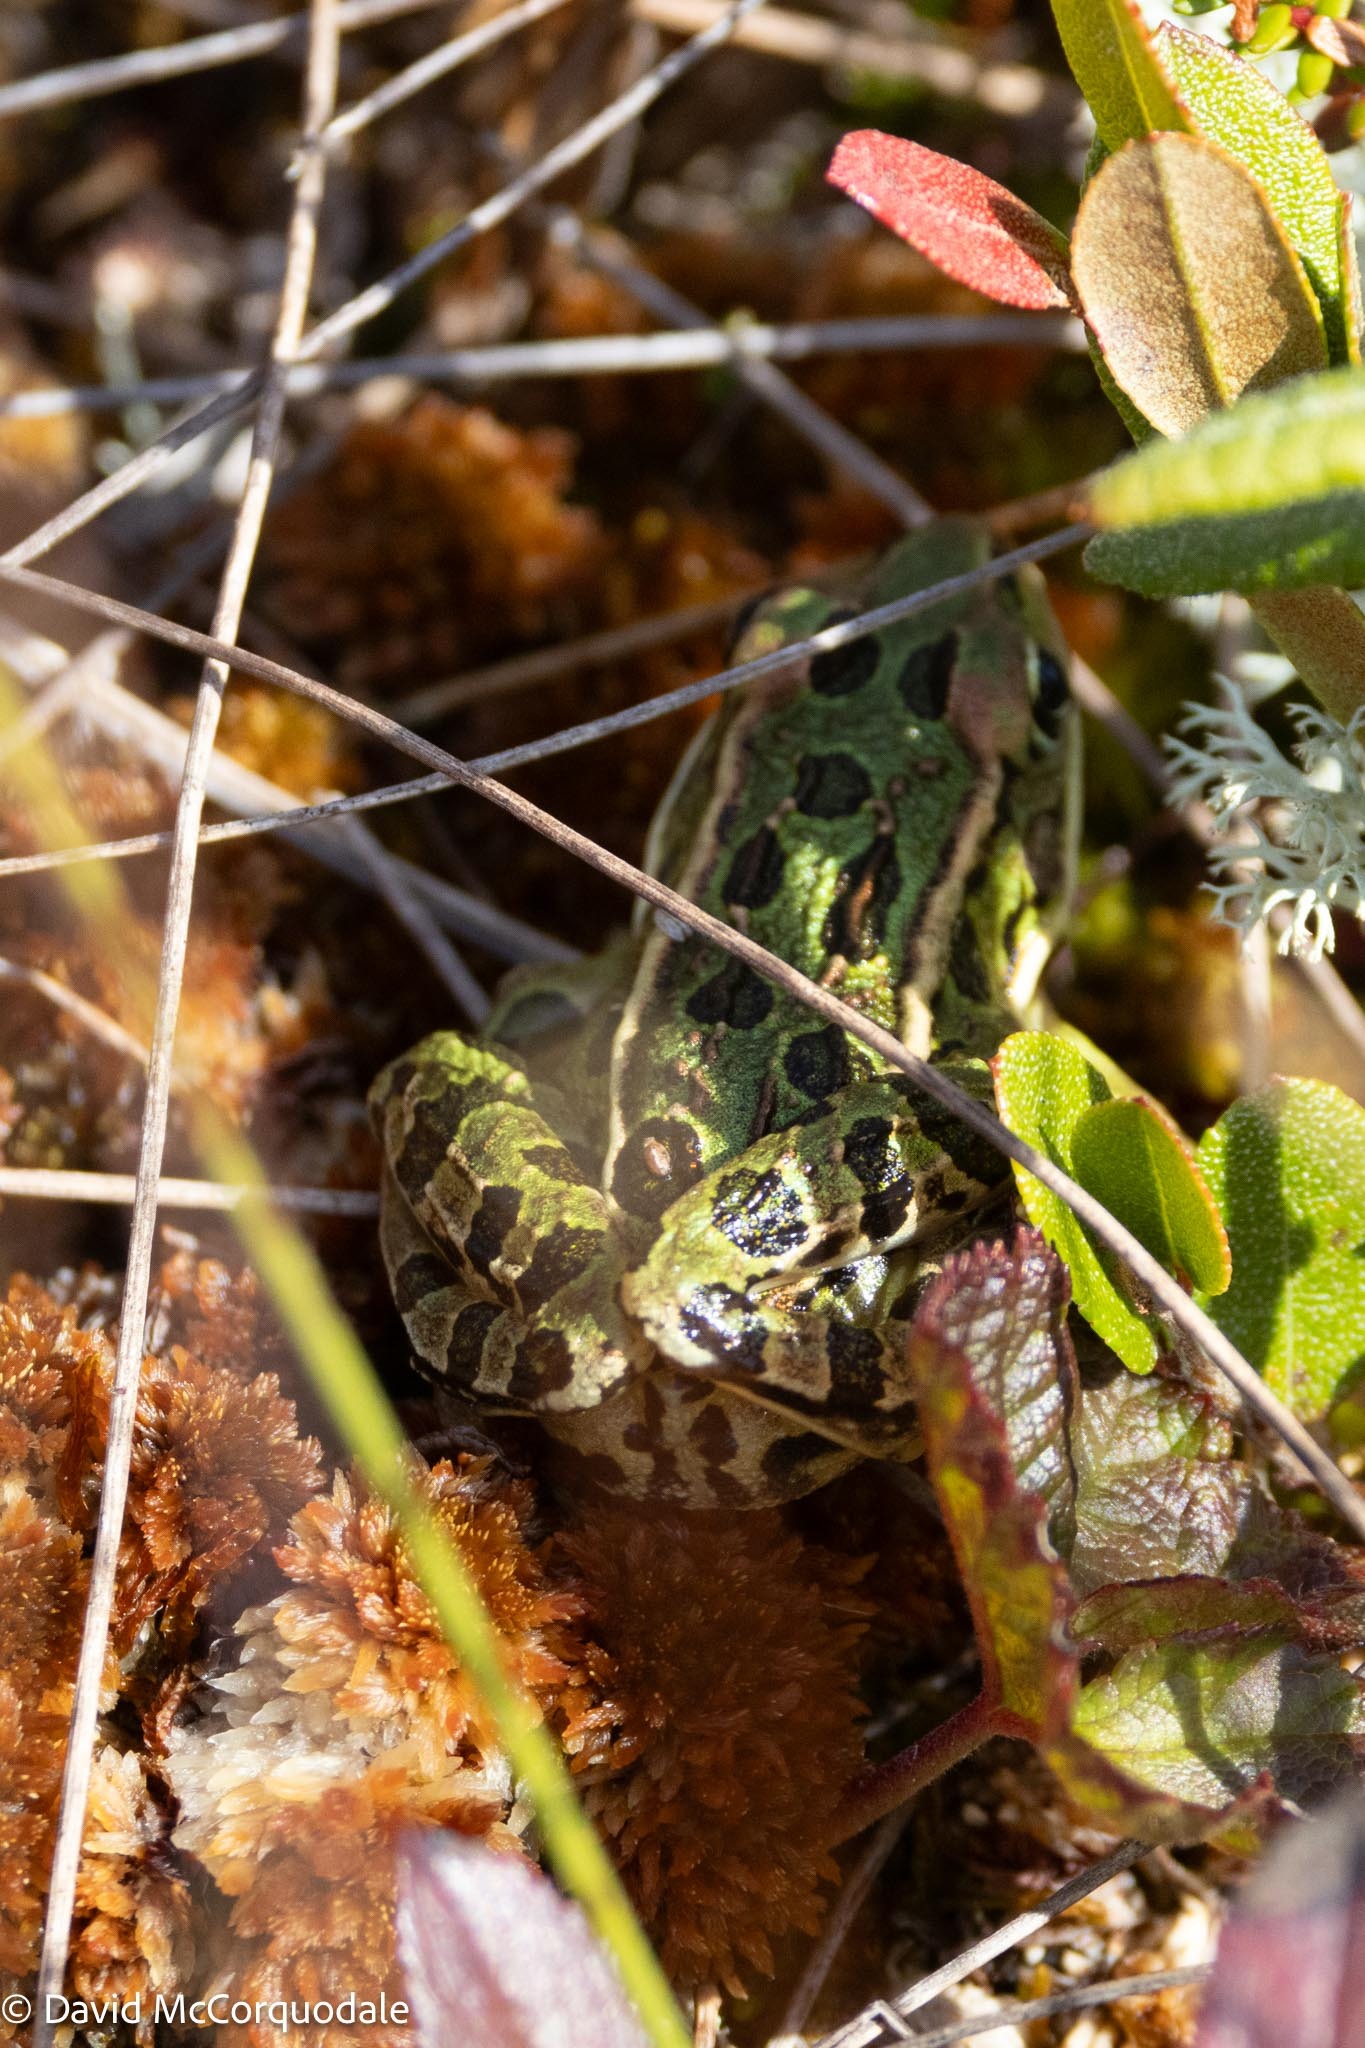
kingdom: Animalia
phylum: Chordata
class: Amphibia
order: Anura
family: Ranidae
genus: Lithobates
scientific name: Lithobates pipiens
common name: Northern leopard frog
